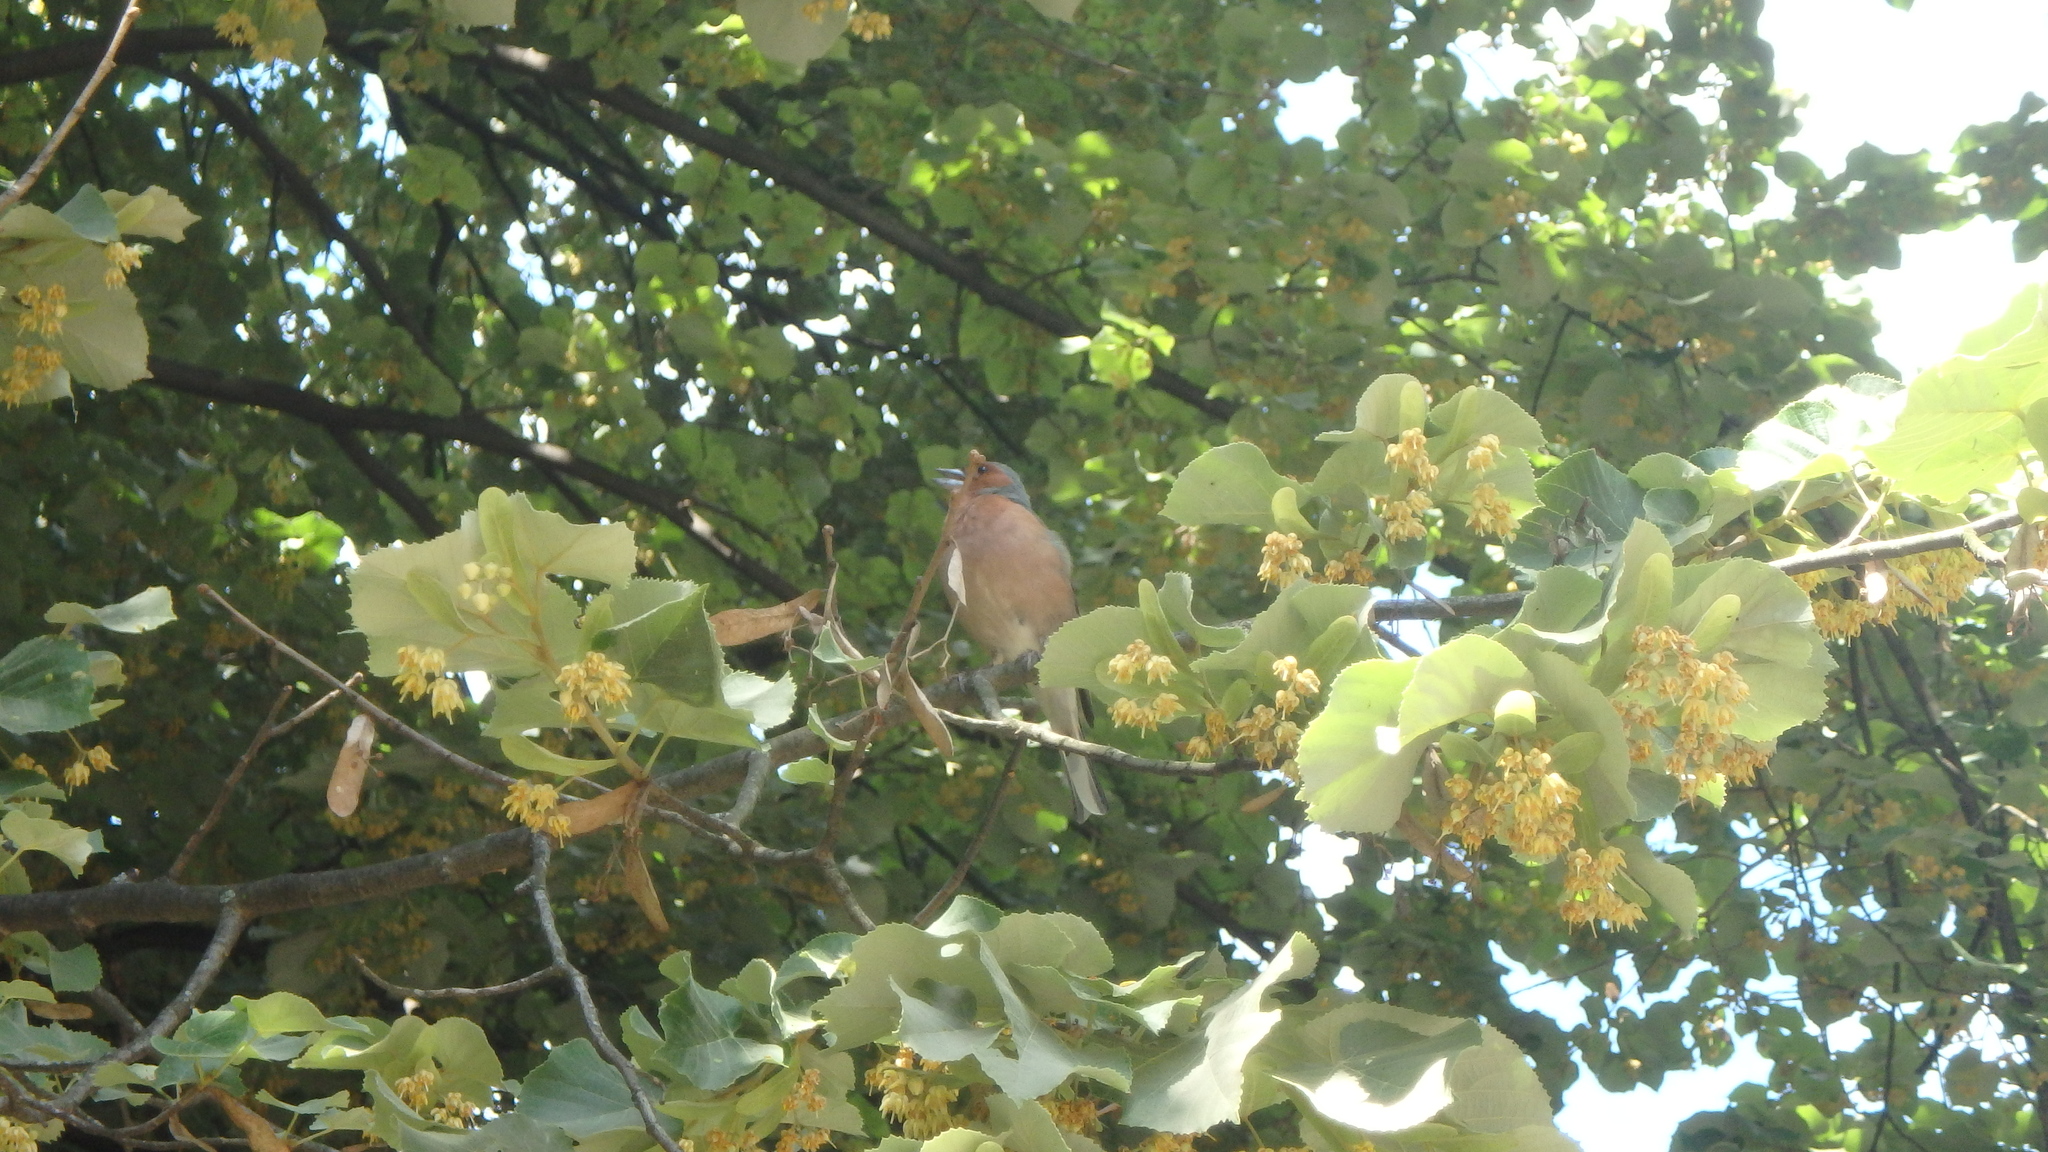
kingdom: Animalia
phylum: Chordata
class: Aves
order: Passeriformes
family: Fringillidae
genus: Fringilla
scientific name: Fringilla coelebs
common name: Common chaffinch
